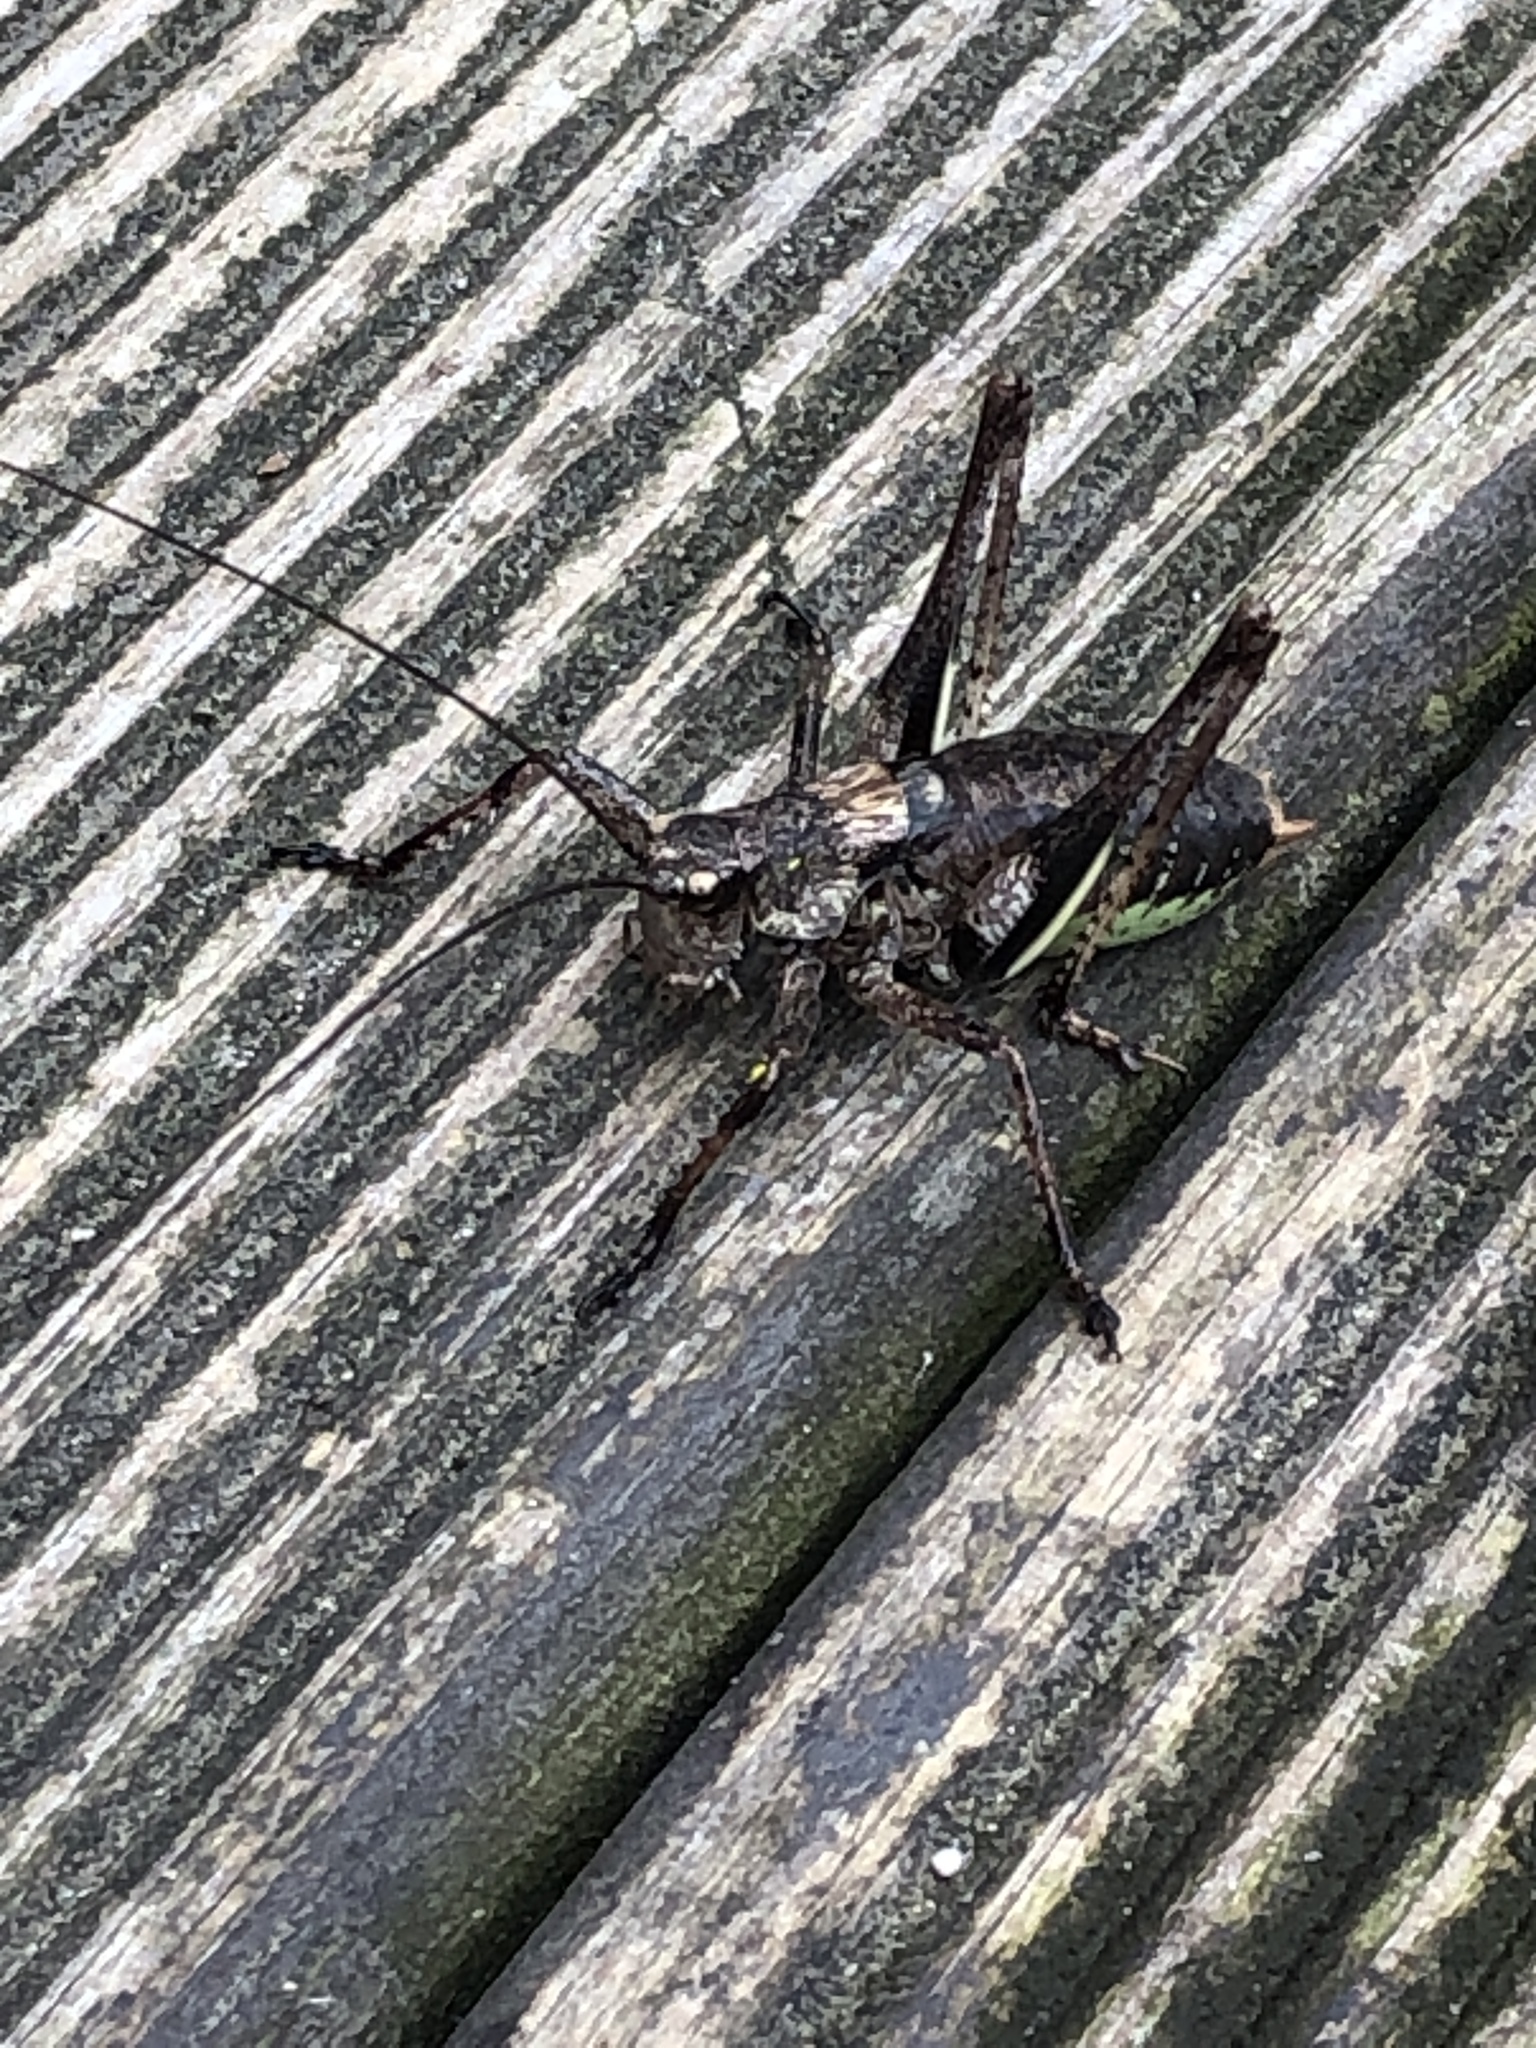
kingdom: Animalia
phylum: Arthropoda
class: Insecta
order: Orthoptera
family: Tettigoniidae
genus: Paratlanticus
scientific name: Paratlanticus ussuriensis
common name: Ussur brown katydid
